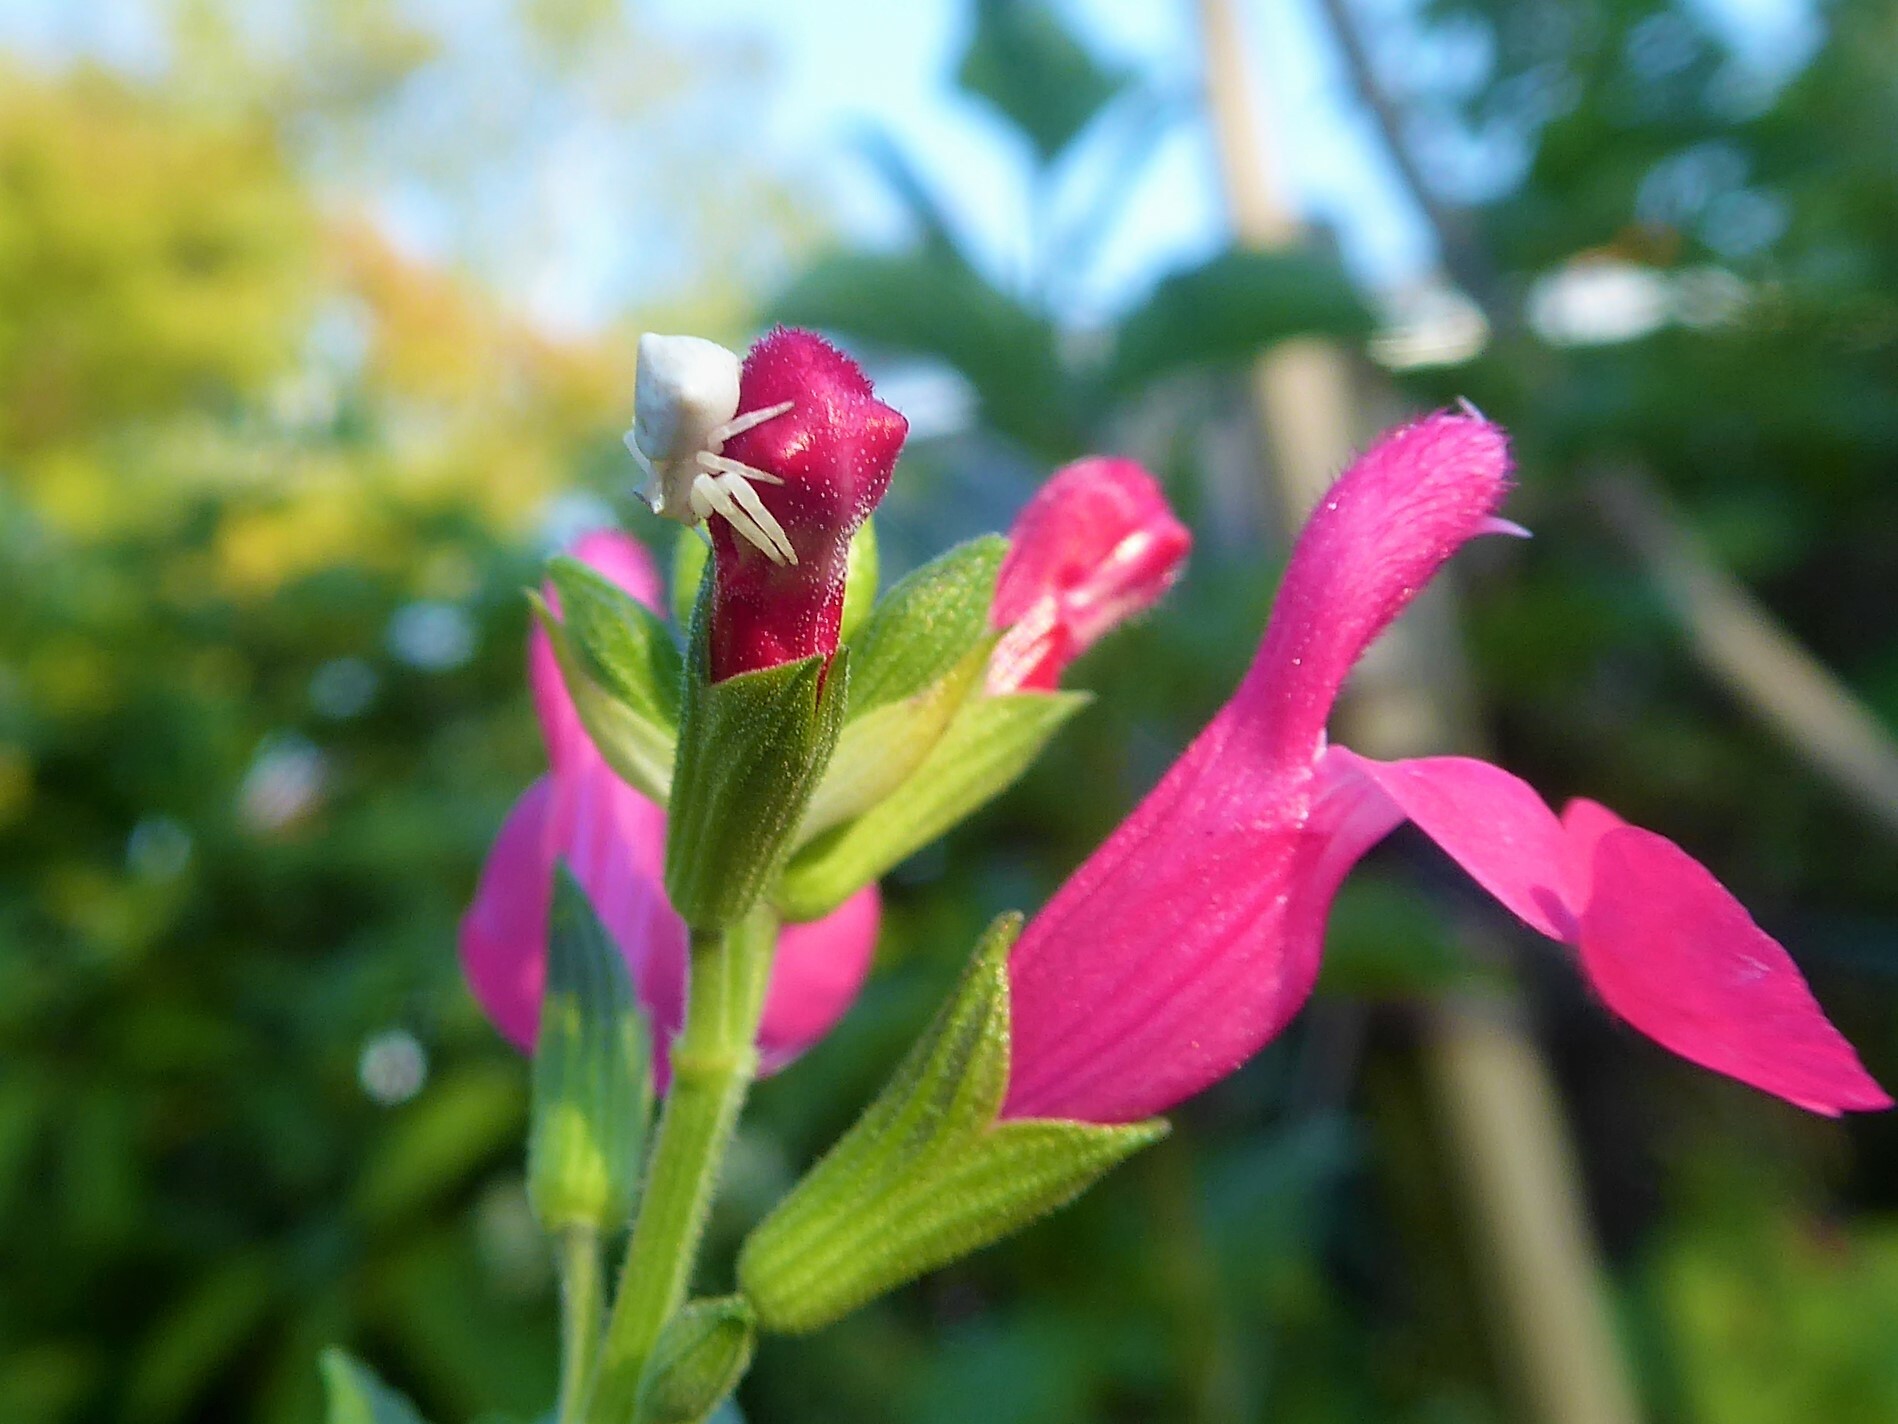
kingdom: Animalia
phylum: Arthropoda
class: Arachnida
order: Araneae
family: Thomisidae
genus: Misumena
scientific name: Misumena vatia
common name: Goldenrod crab spider
